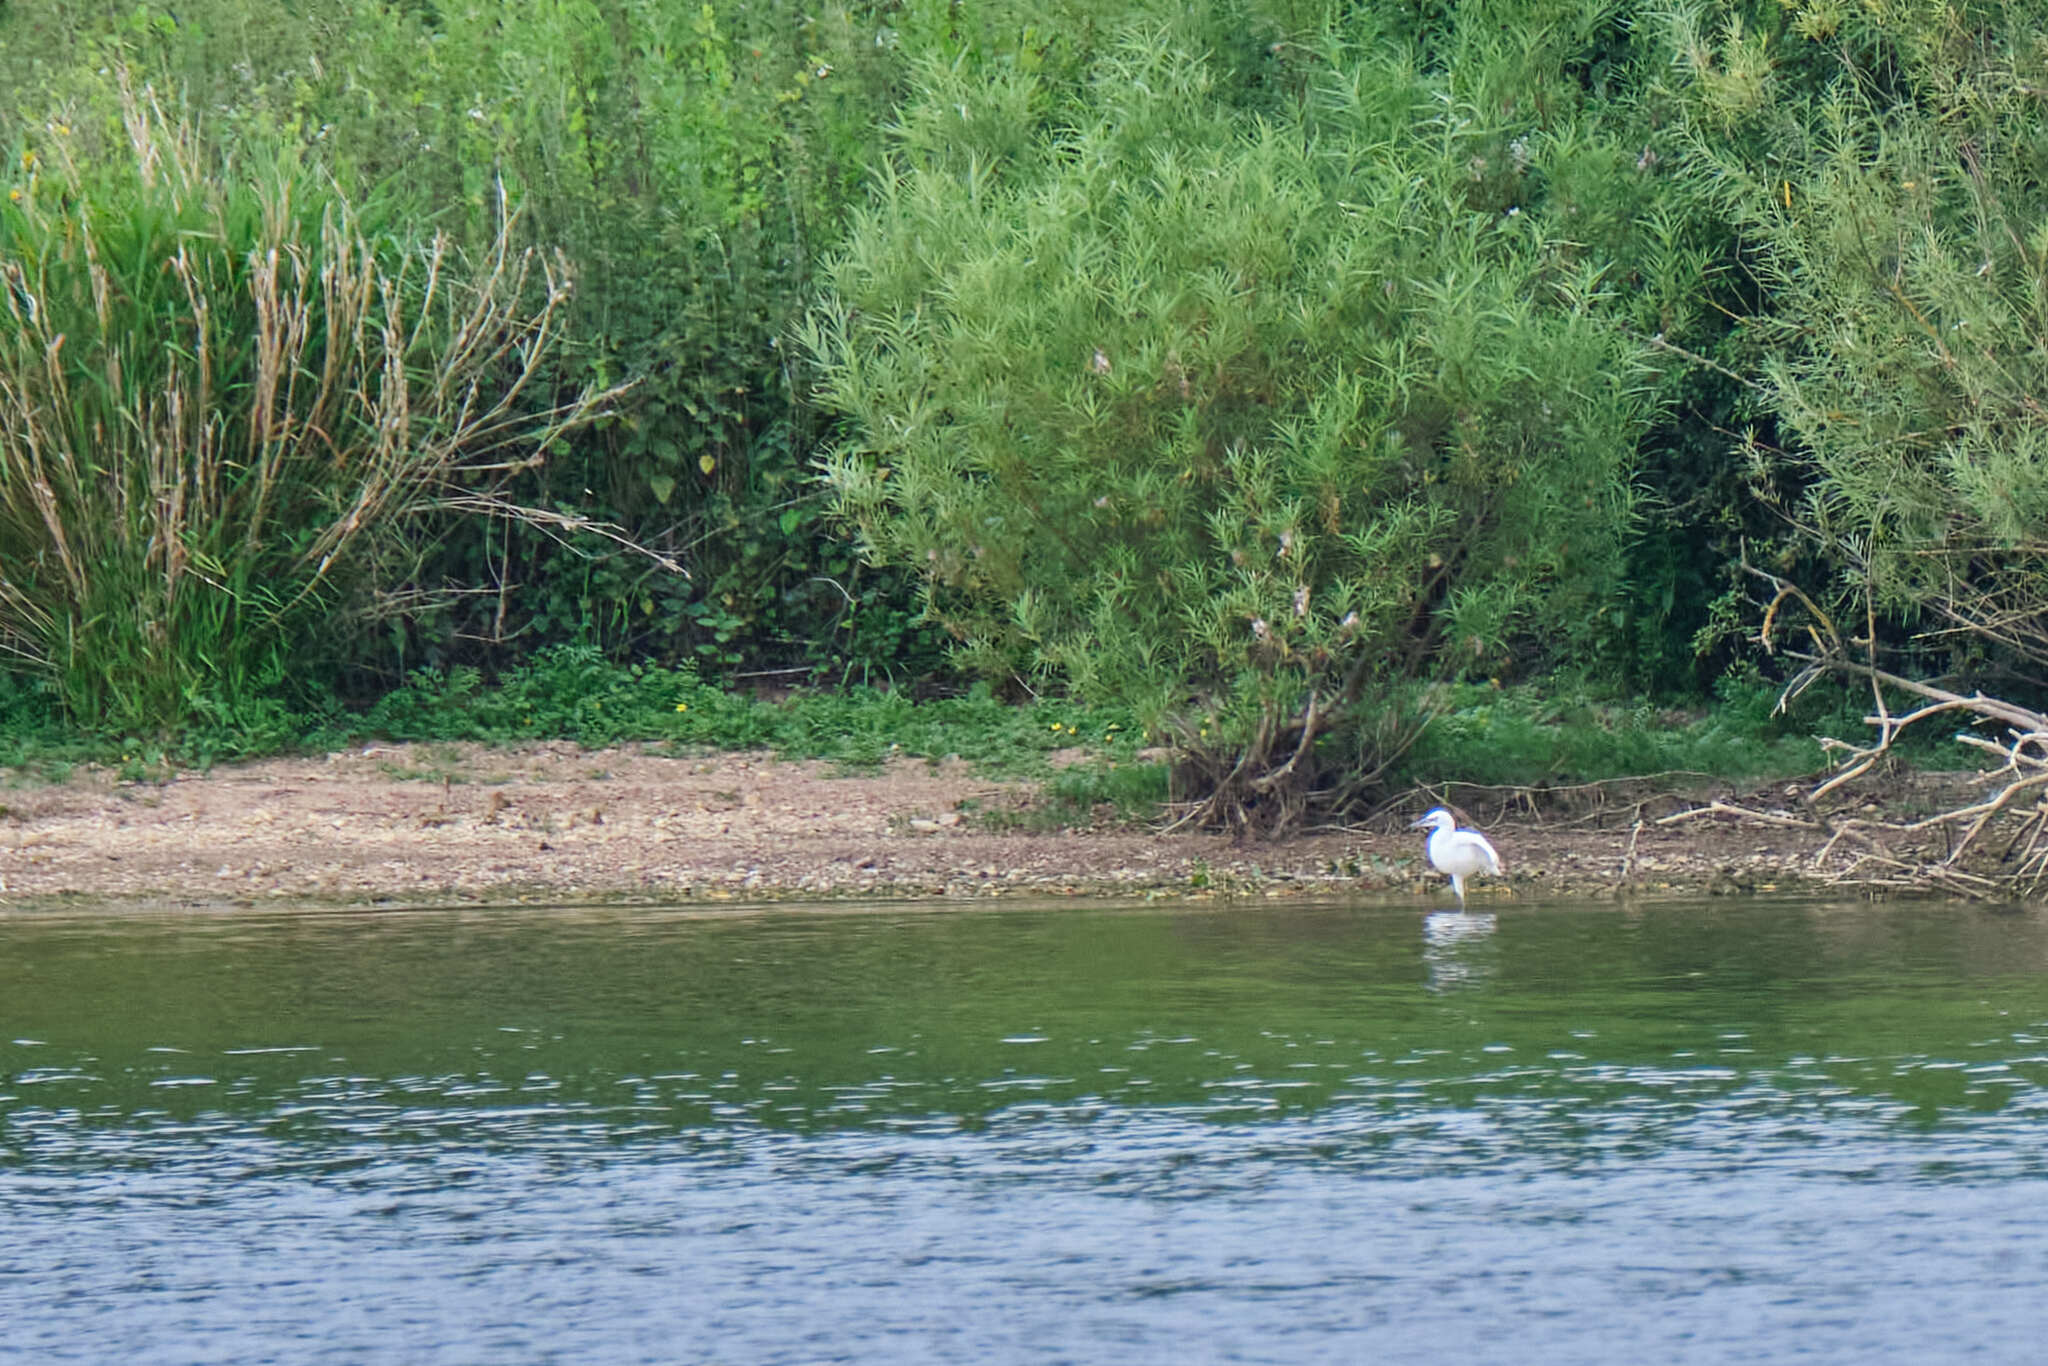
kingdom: Animalia
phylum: Chordata
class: Aves
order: Pelecaniformes
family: Ardeidae
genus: Egretta
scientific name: Egretta garzetta
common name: Little egret
